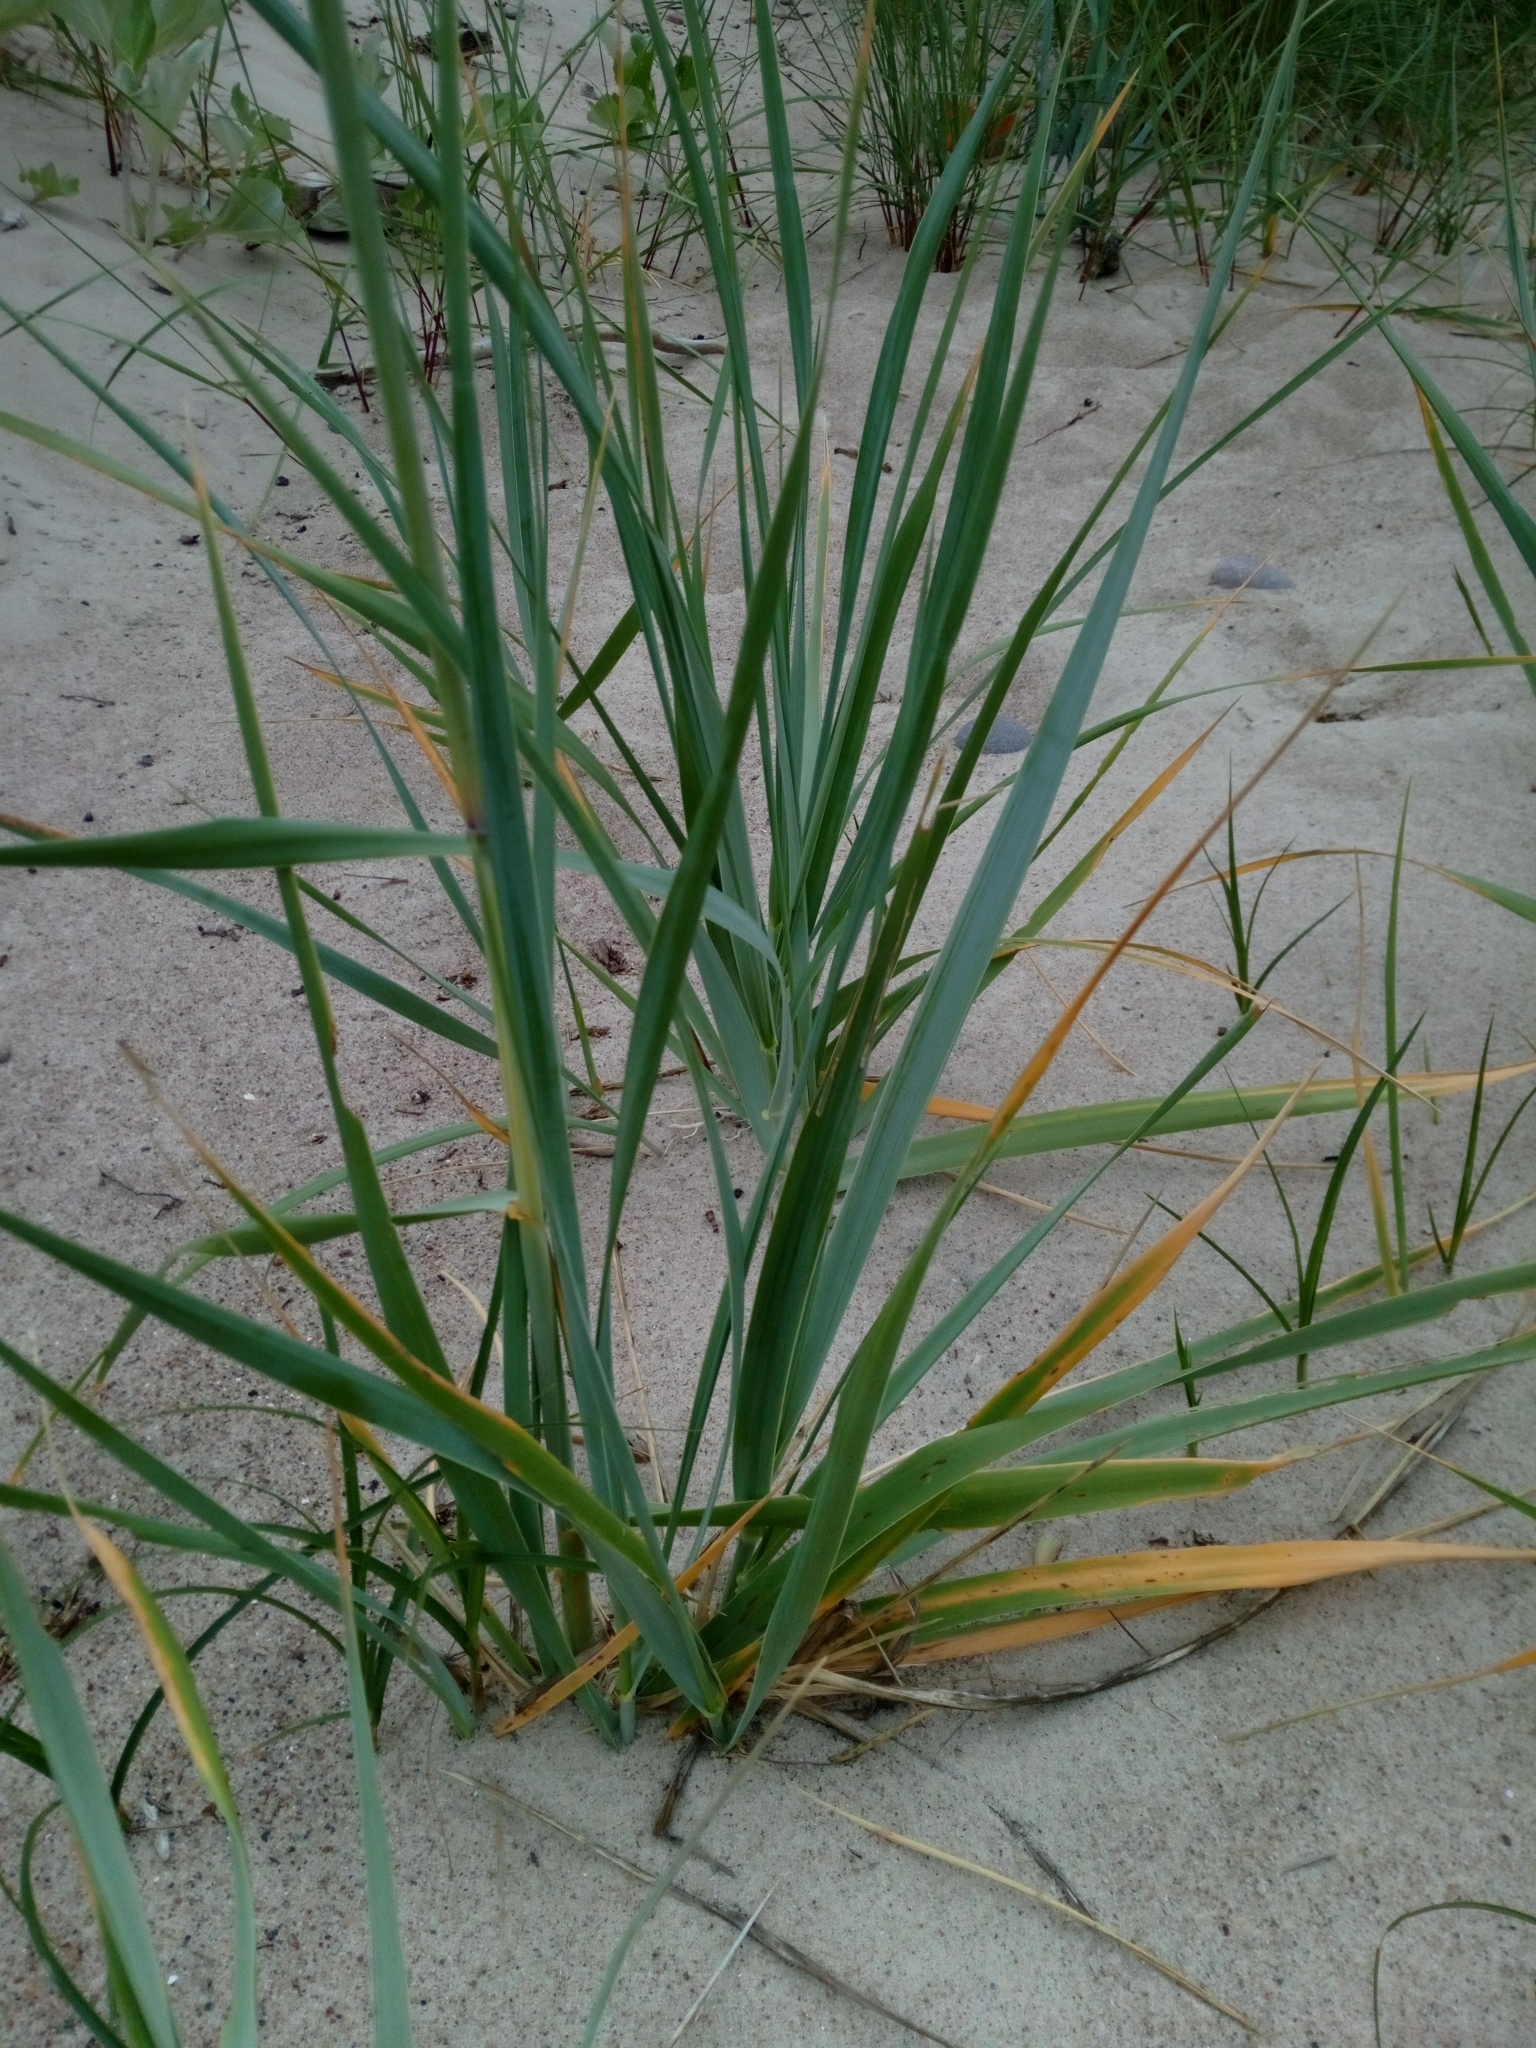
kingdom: Plantae
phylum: Tracheophyta
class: Liliopsida
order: Poales
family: Poaceae
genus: Leymus
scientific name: Leymus arenarius
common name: Lyme-grass
